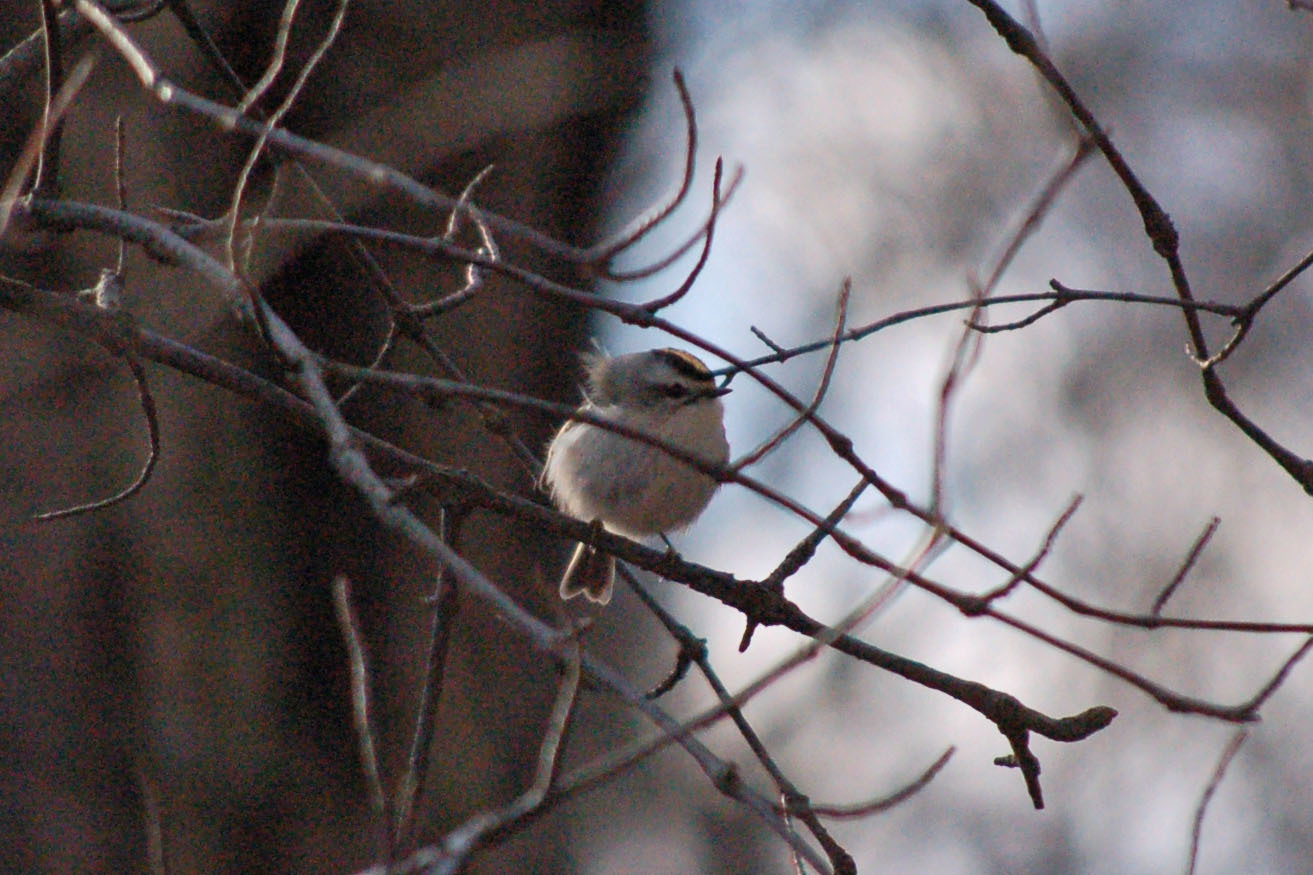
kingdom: Animalia
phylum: Chordata
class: Aves
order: Passeriformes
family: Regulidae
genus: Regulus
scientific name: Regulus satrapa
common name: Golden-crowned kinglet
